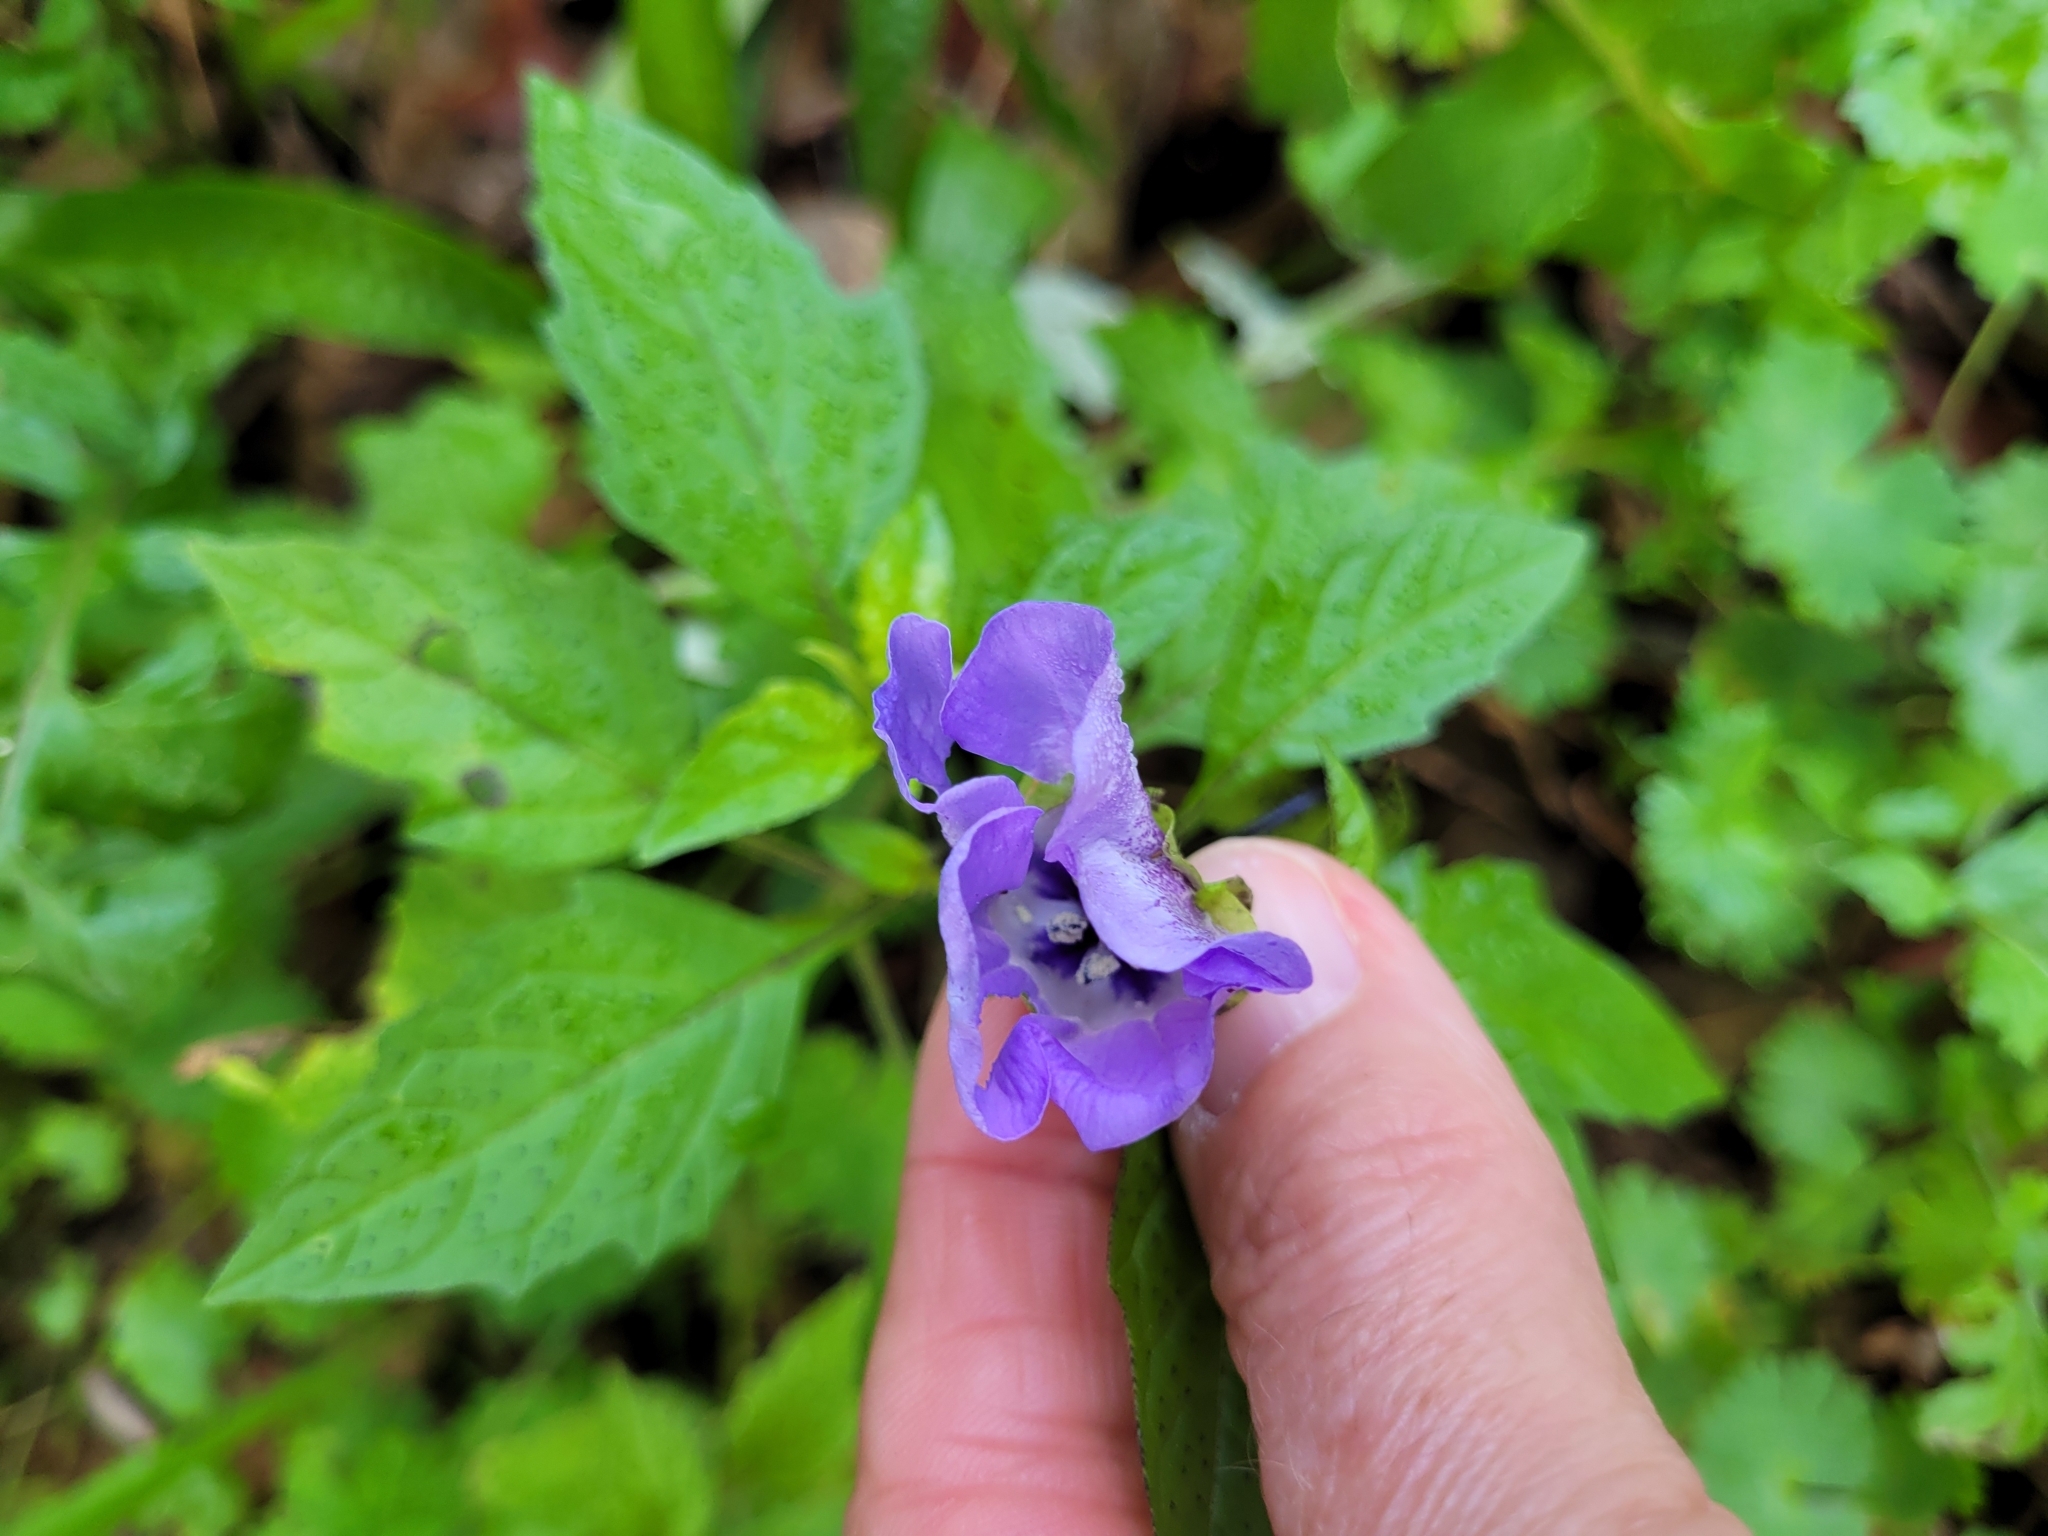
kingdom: Plantae
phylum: Tracheophyta
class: Magnoliopsida
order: Solanales
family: Solanaceae
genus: Nicandra
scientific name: Nicandra physalodes
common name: Apple-of-peru
